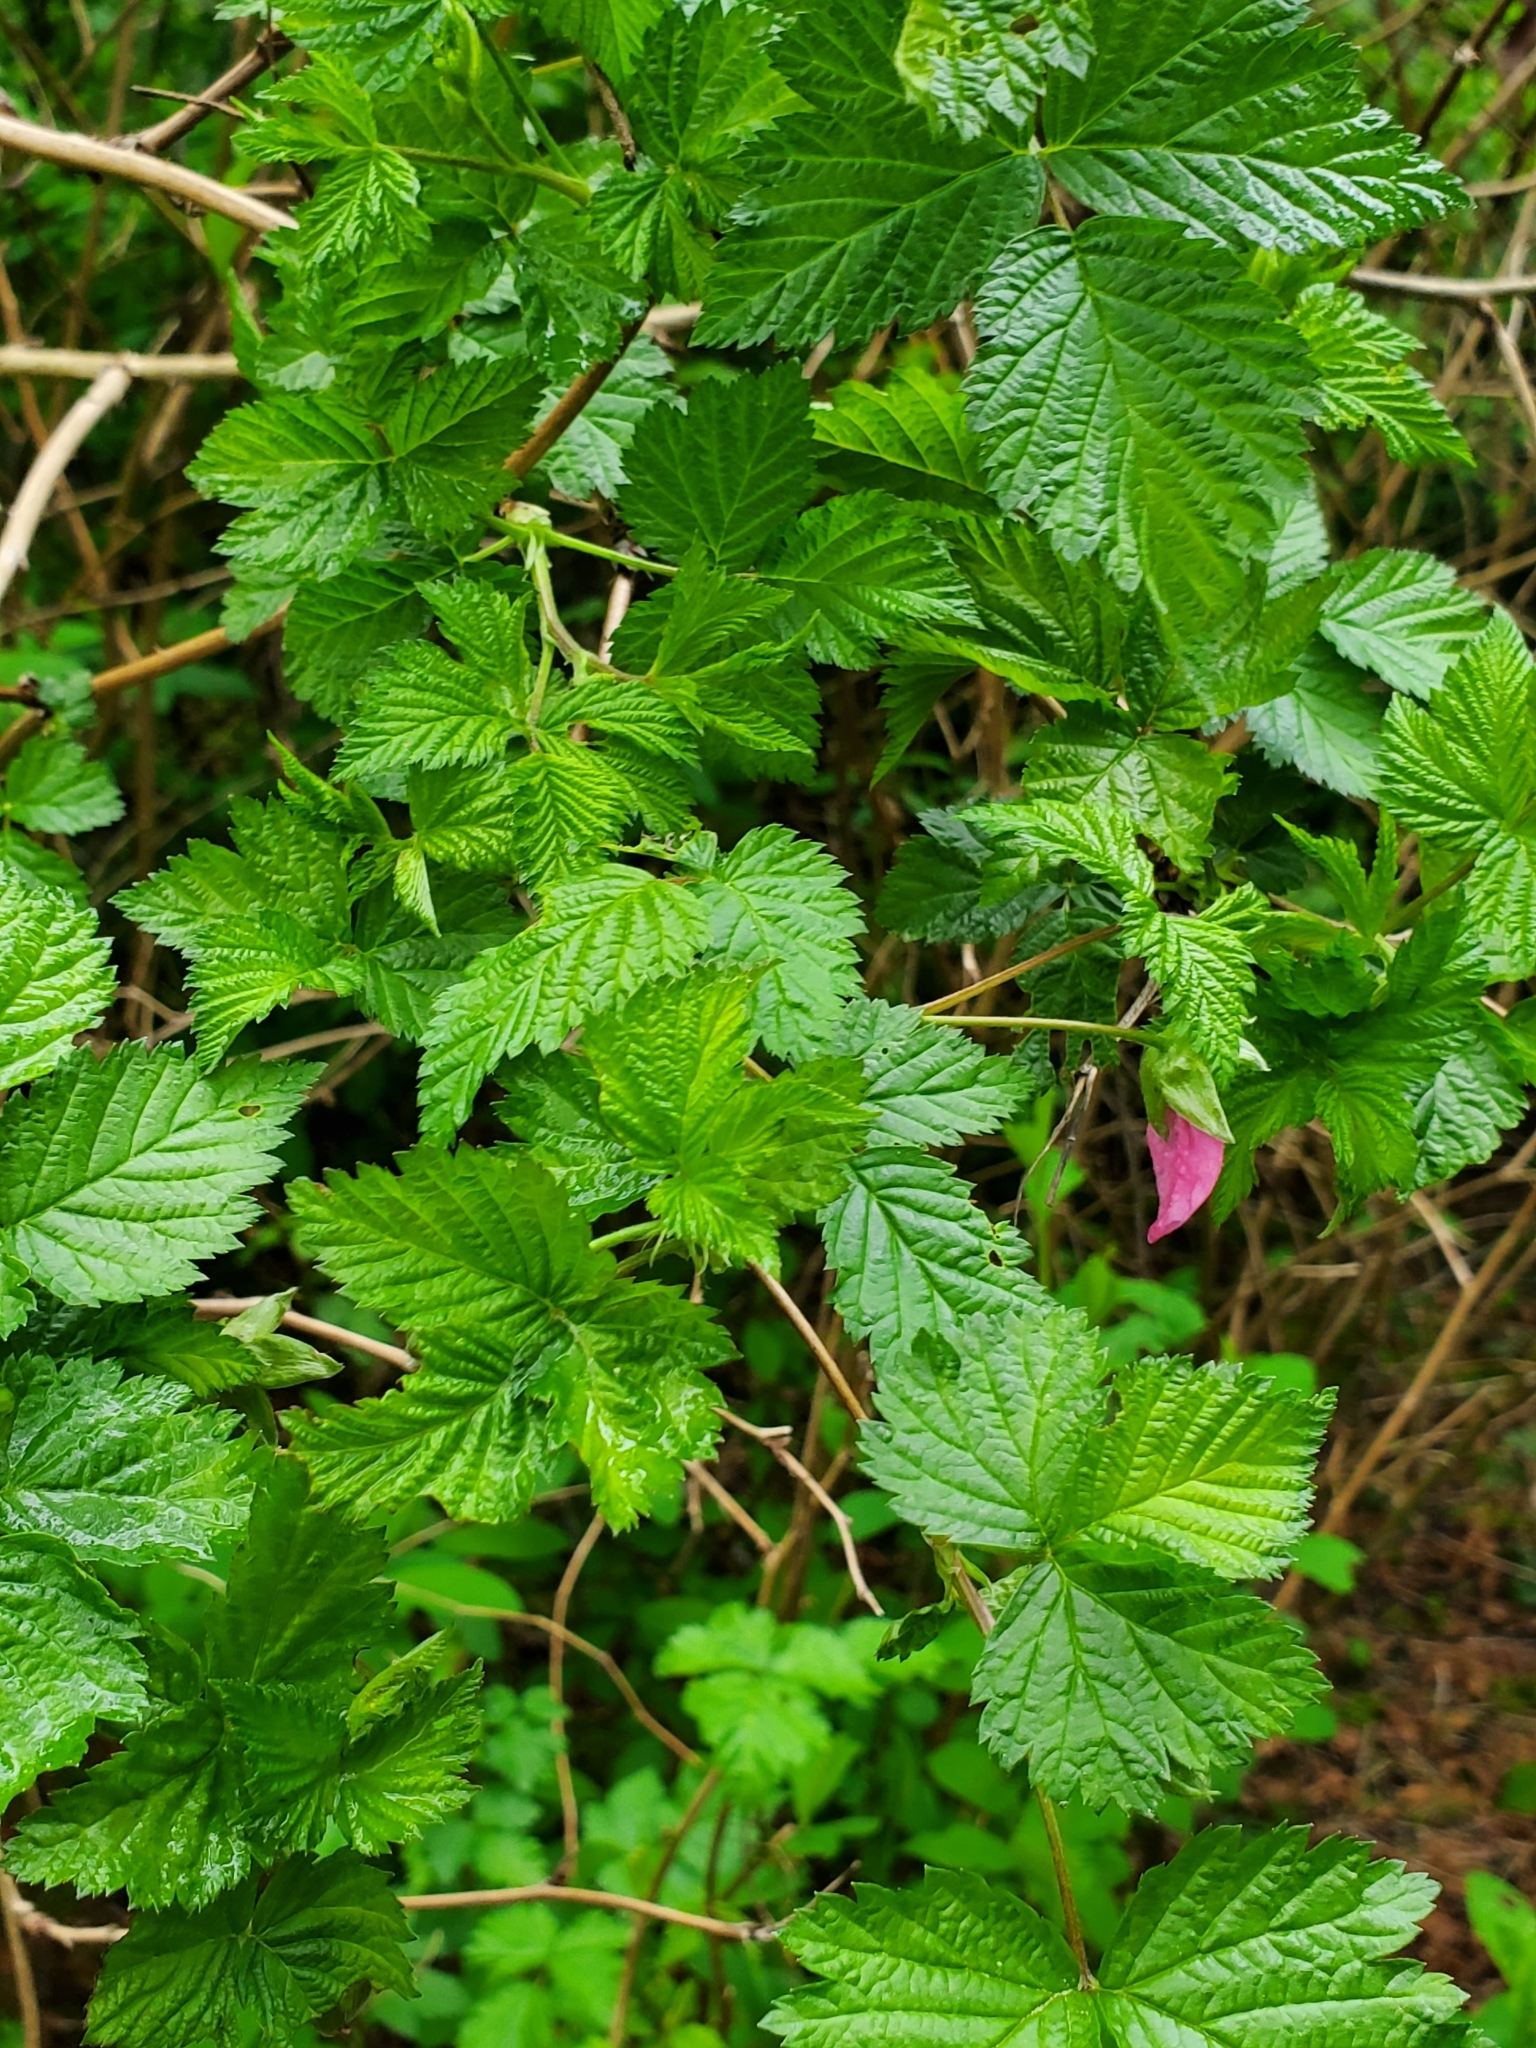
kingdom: Plantae
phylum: Tracheophyta
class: Magnoliopsida
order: Rosales
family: Rosaceae
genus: Rubus
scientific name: Rubus spectabilis
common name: Salmonberry
